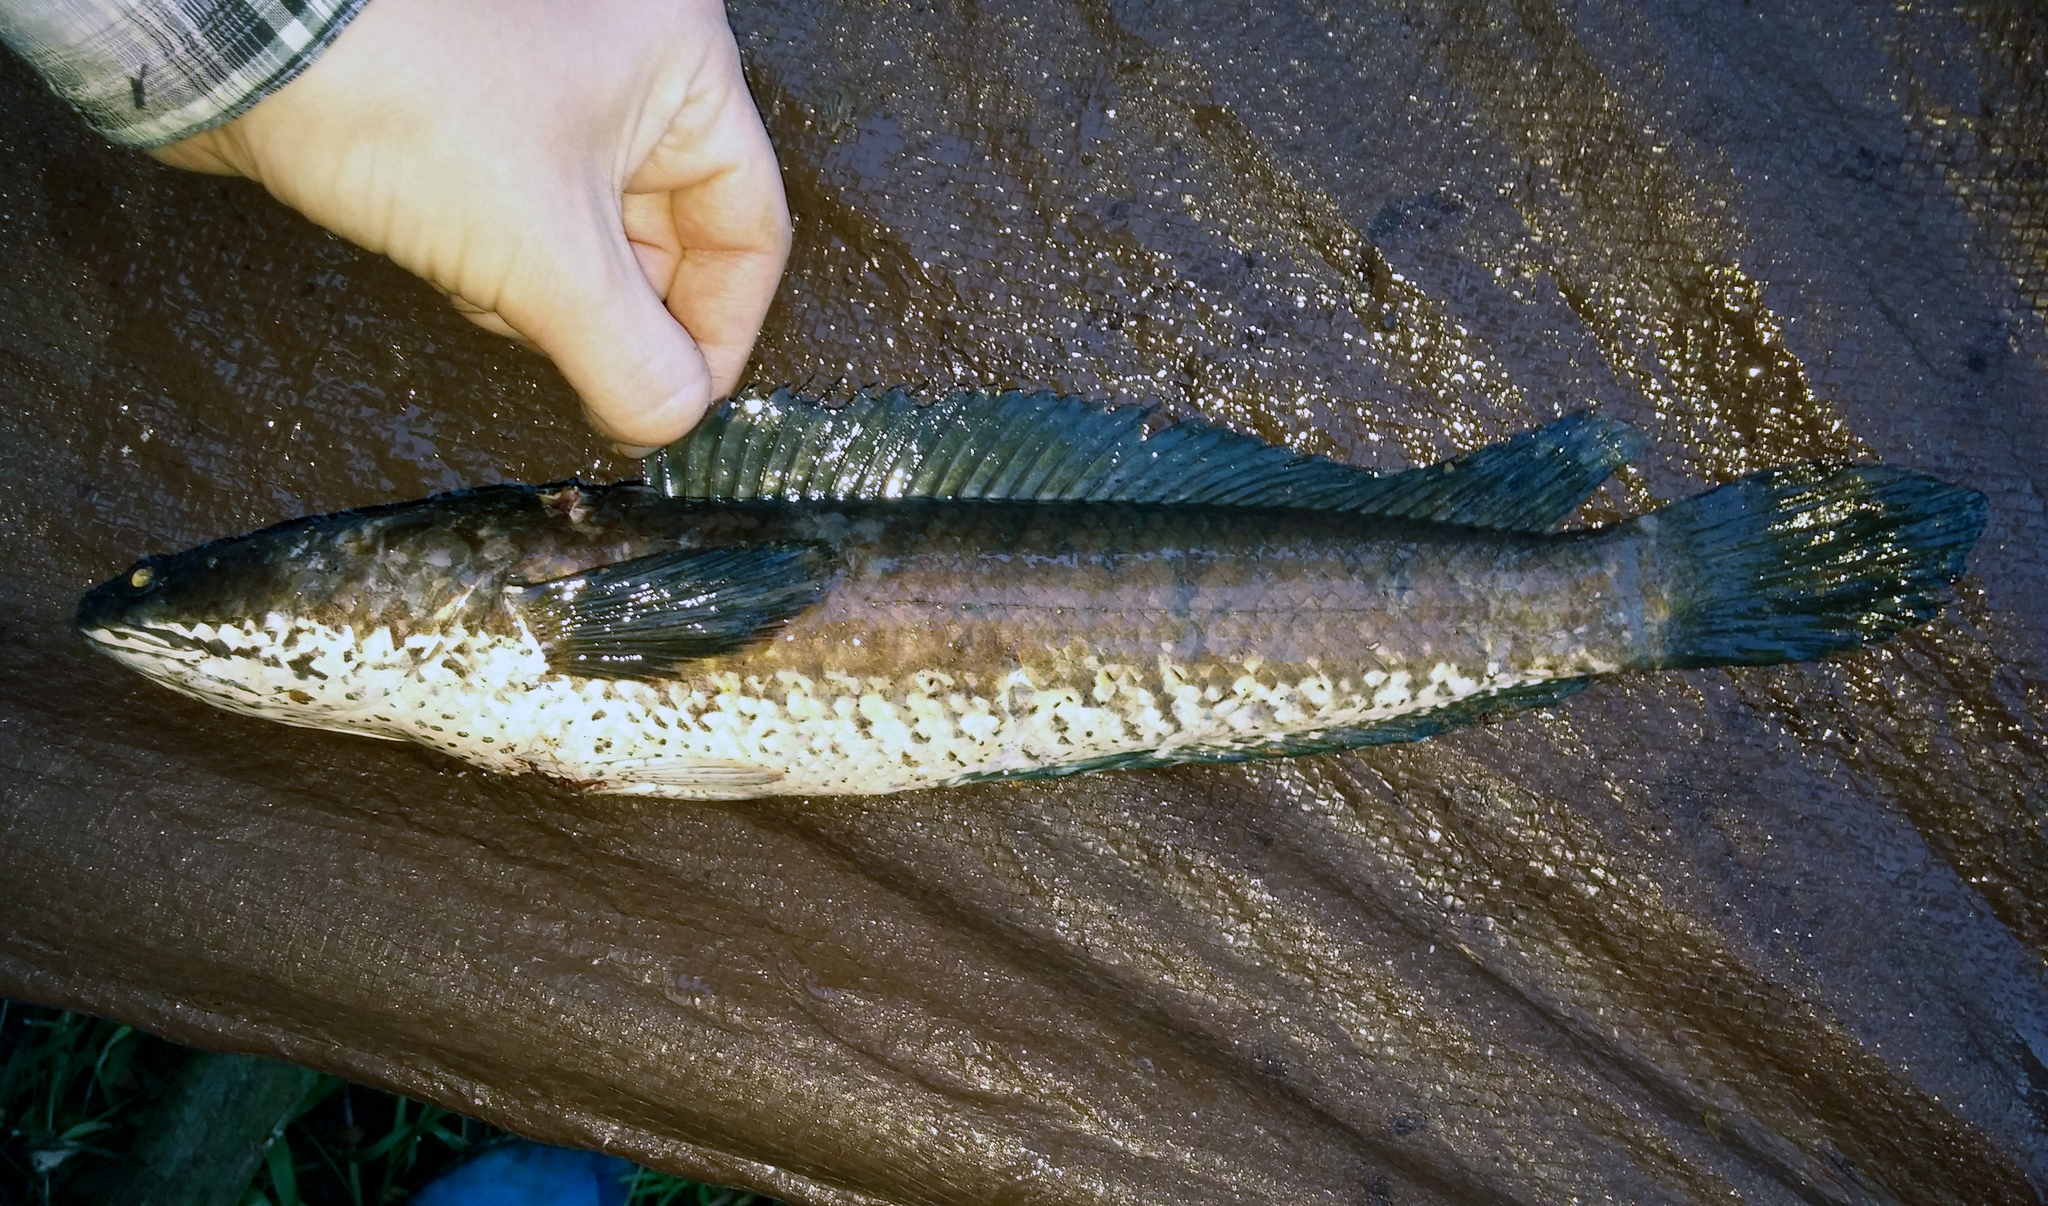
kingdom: Animalia
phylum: Chordata
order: Perciformes
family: Channidae
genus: Channa
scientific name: Channa striata
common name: Striped snakehead
